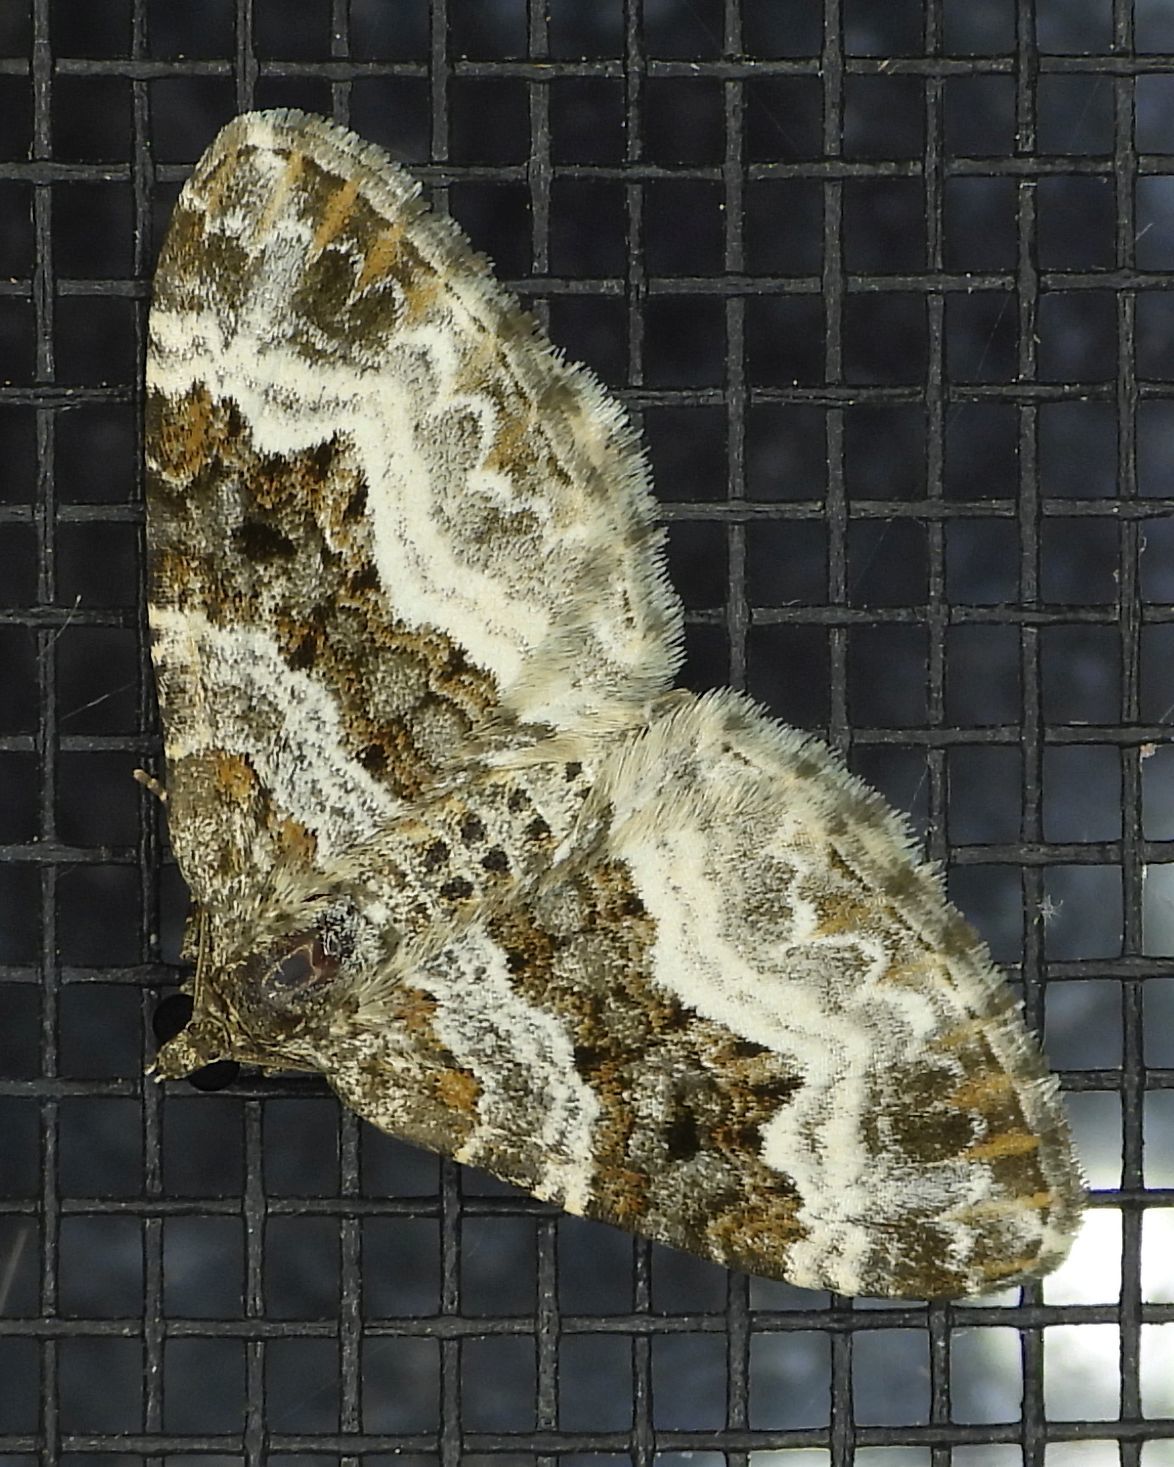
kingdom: Animalia
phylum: Arthropoda
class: Insecta
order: Lepidoptera
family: Geometridae
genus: Epirrhoe
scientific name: Epirrhoe alternata
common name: Common carpet
